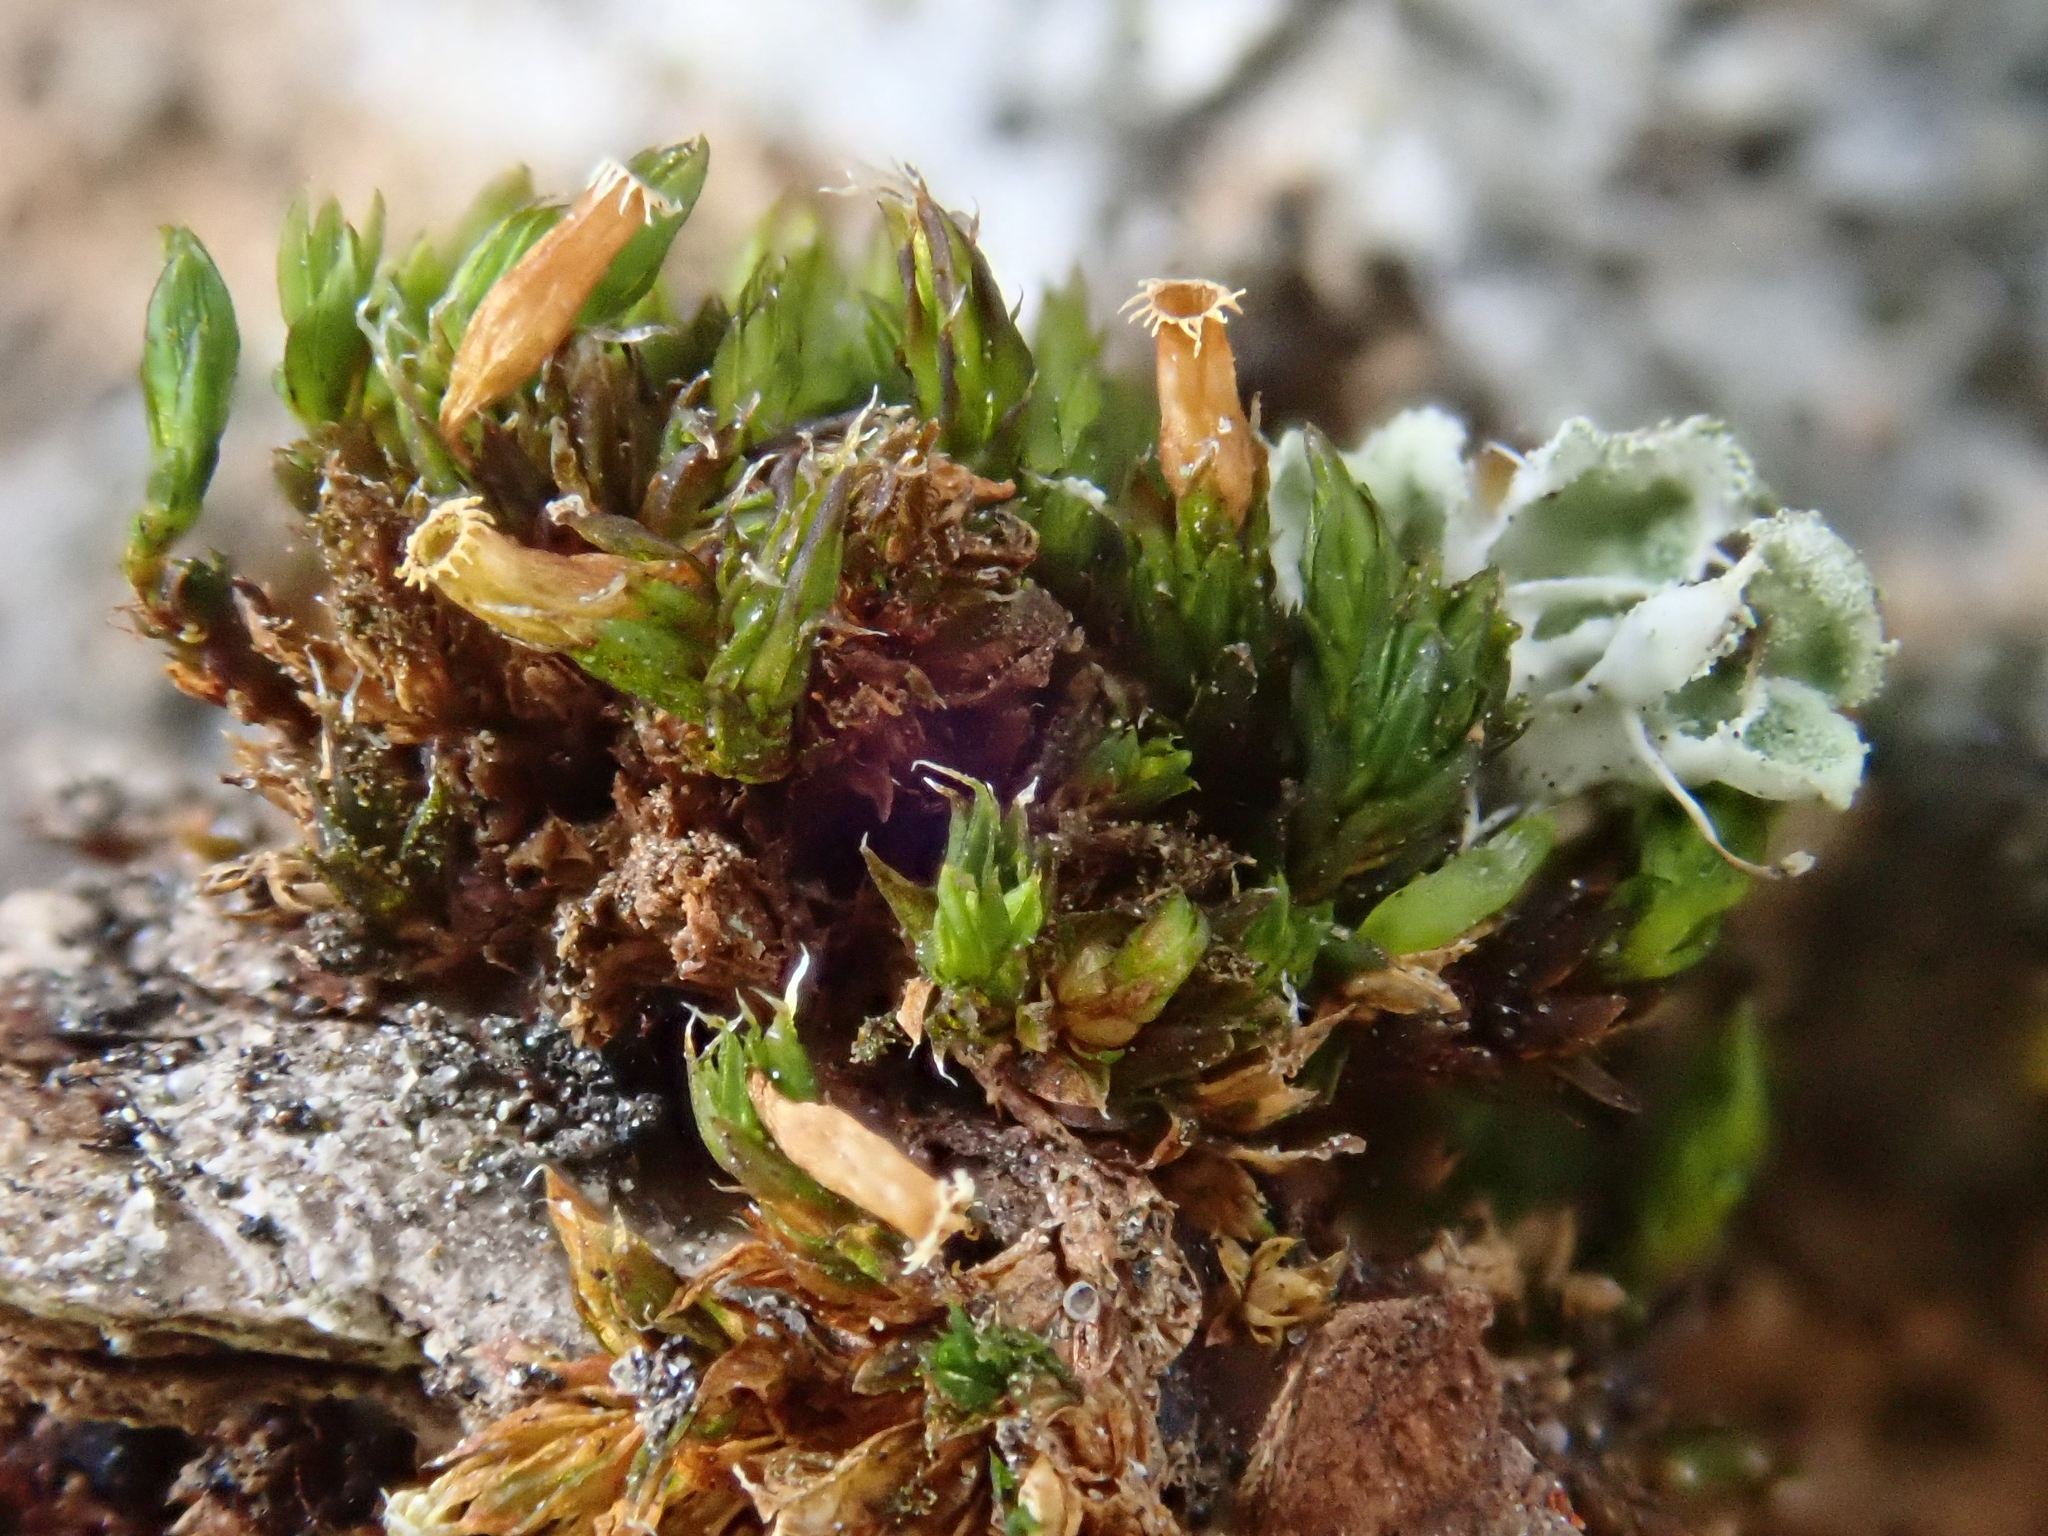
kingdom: Plantae
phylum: Bryophyta
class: Bryopsida
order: Orthotrichales
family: Orthotrichaceae
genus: Orthotrichum
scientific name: Orthotrichum diaphanum
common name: White-tipped bristle-moss
